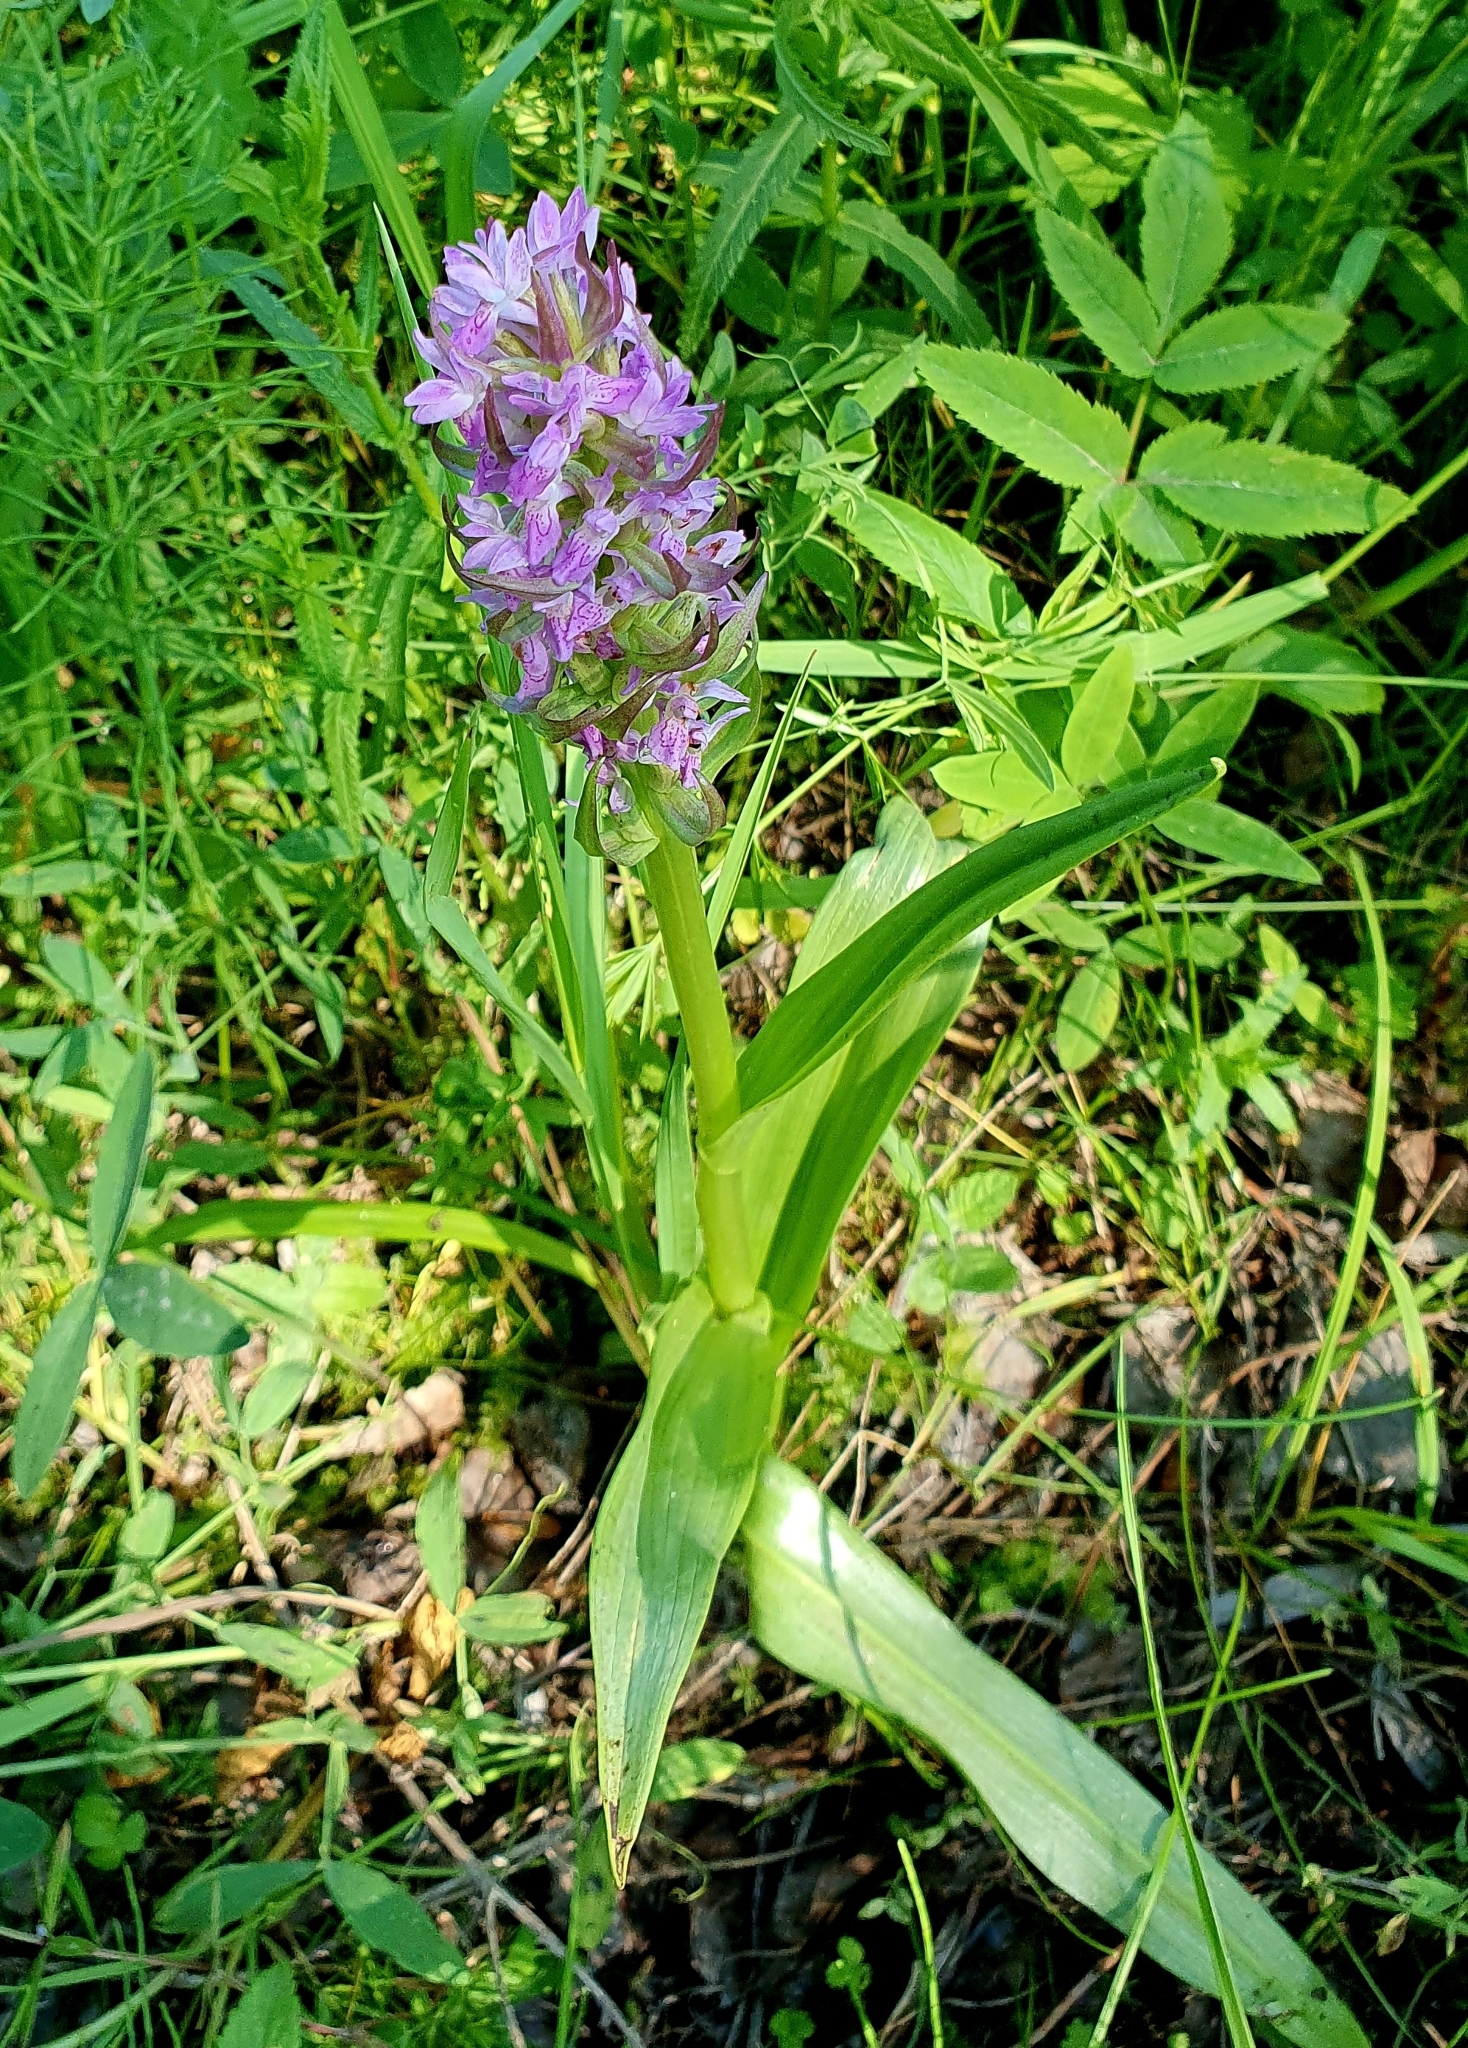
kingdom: Plantae
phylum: Tracheophyta
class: Liliopsida
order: Asparagales
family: Orchidaceae
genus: Dactylorhiza
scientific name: Dactylorhiza incarnata
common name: Early marsh-orchid
